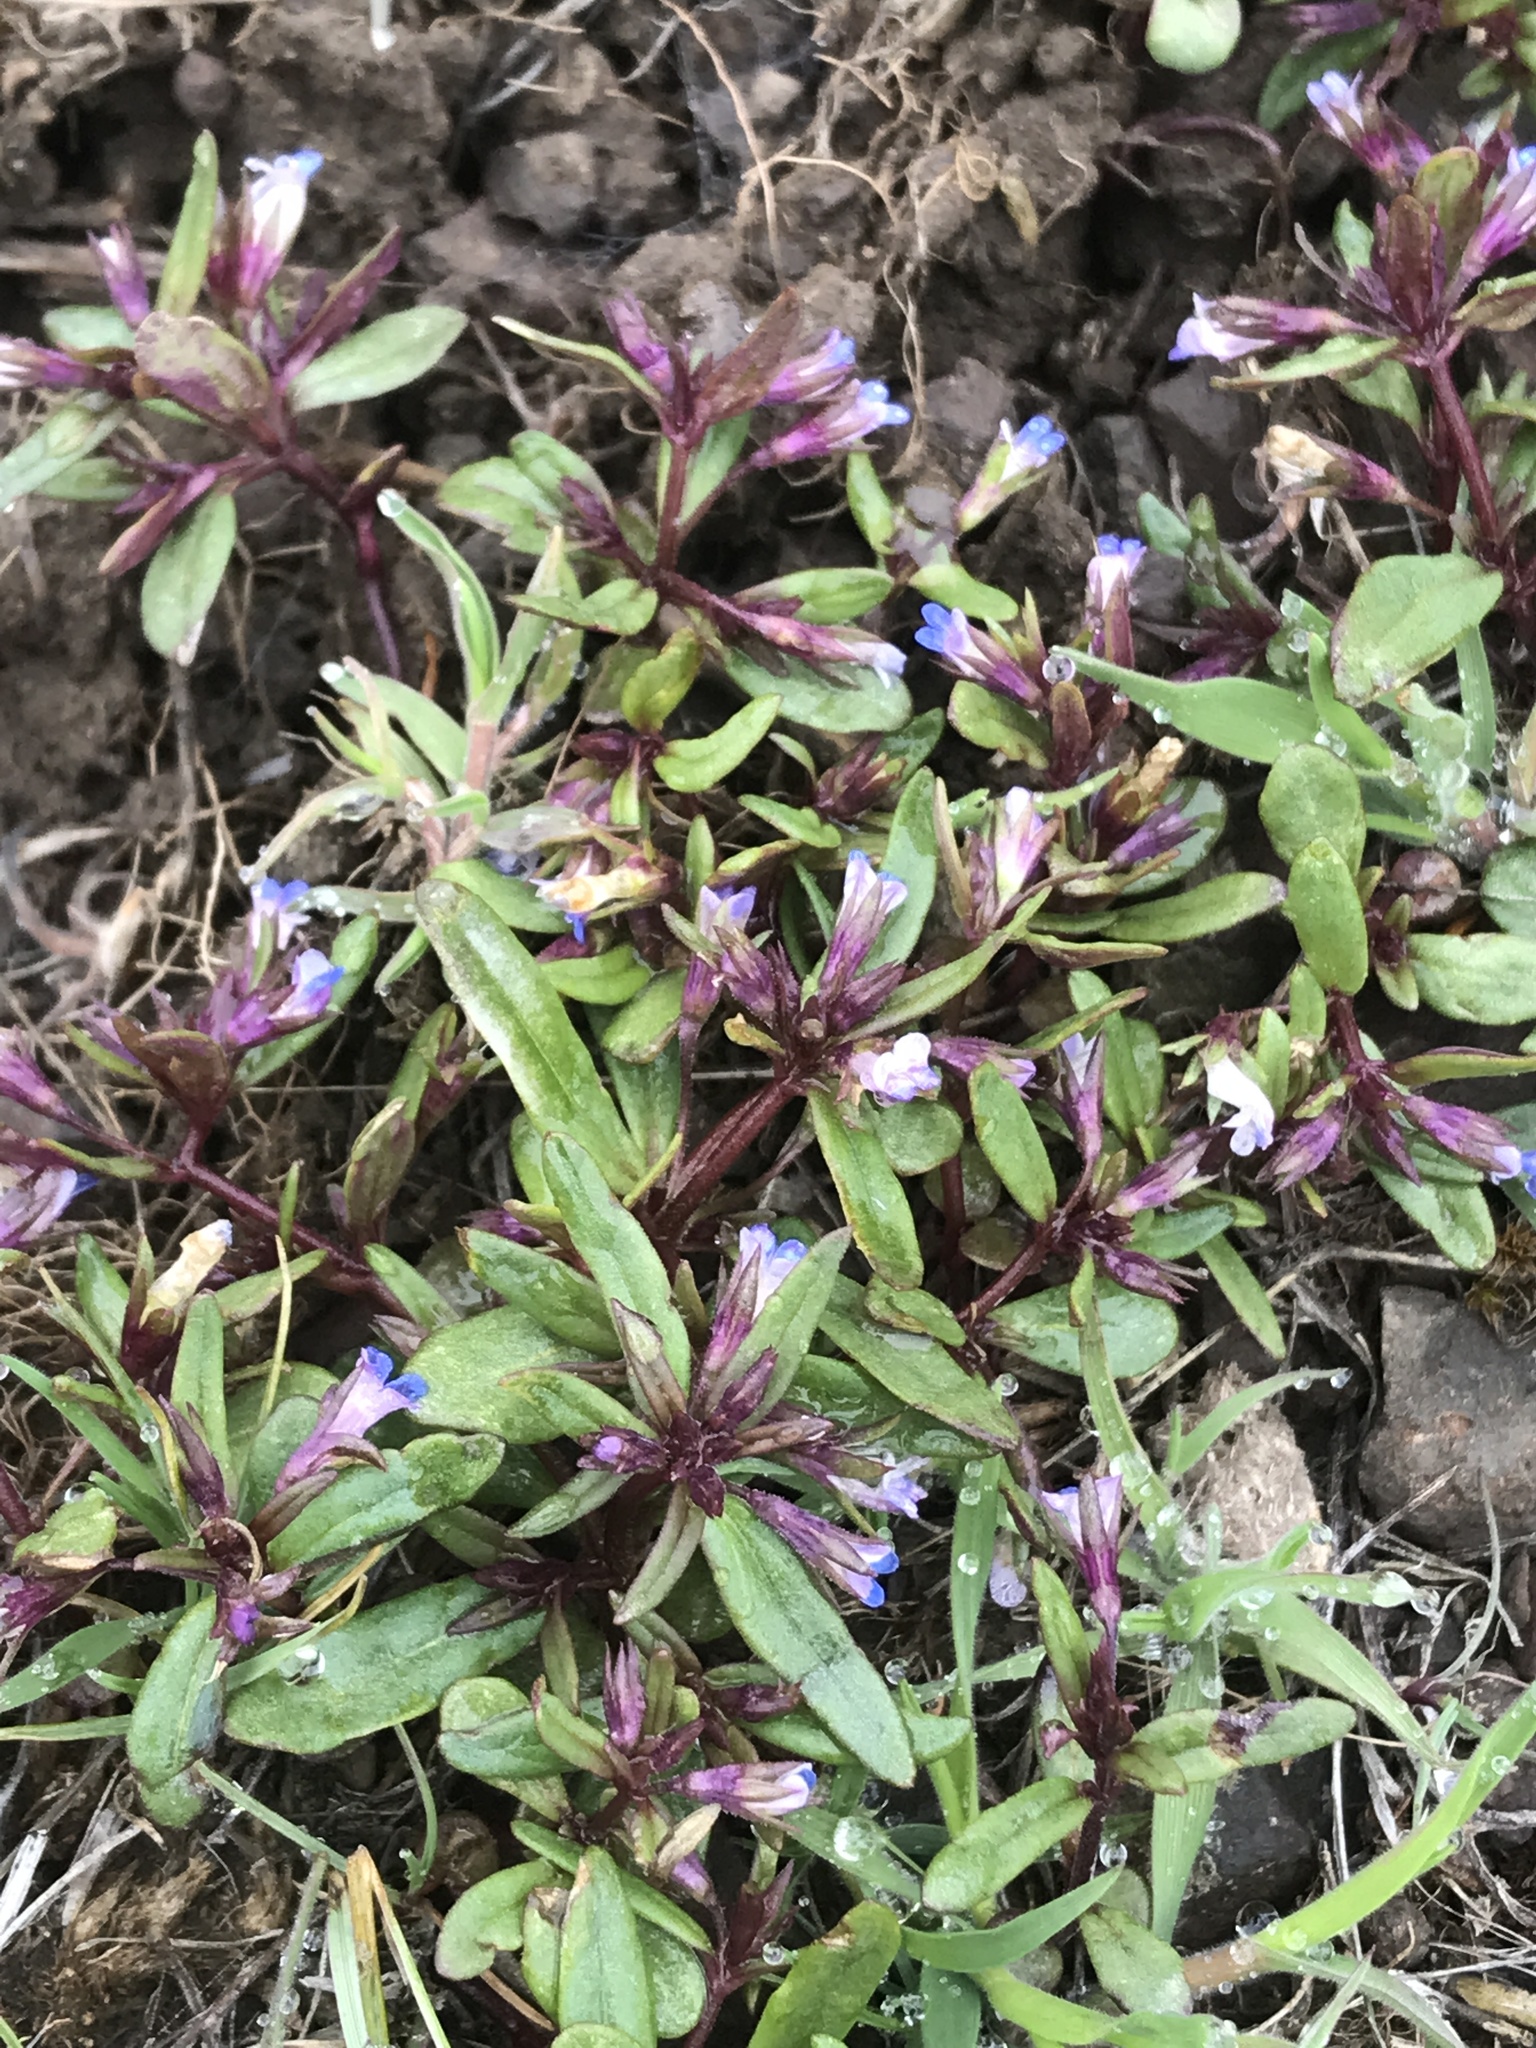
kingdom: Plantae
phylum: Tracheophyta
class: Magnoliopsida
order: Lamiales
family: Plantaginaceae
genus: Collinsia
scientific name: Collinsia parviflora
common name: Blue-lips
